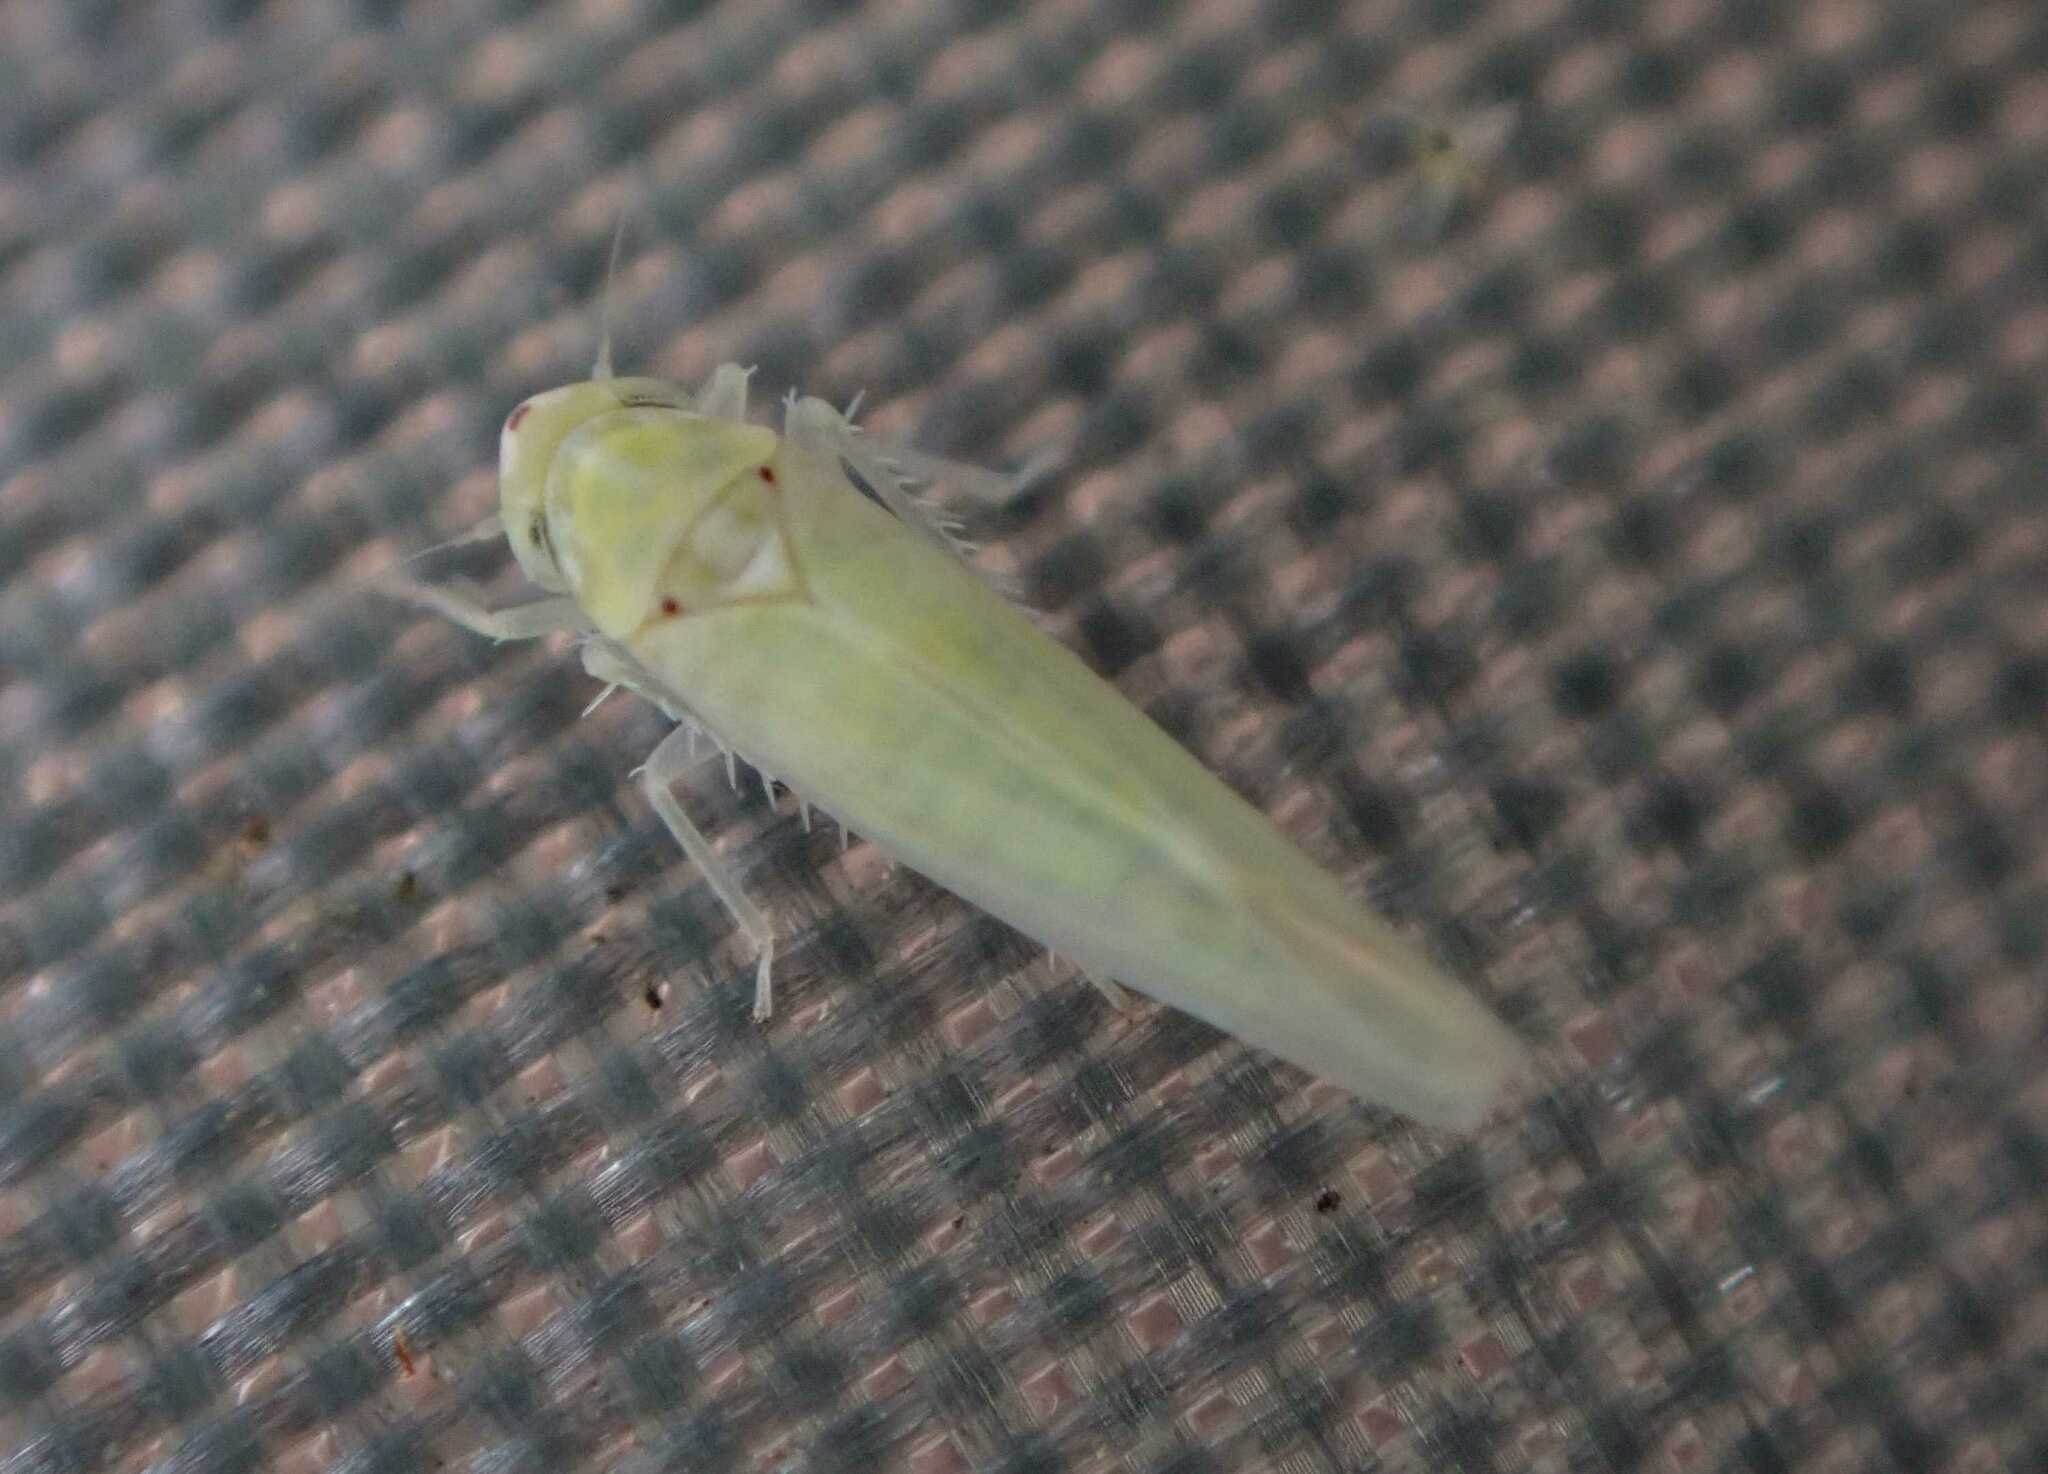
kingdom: Animalia
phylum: Arthropoda
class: Insecta
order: Hemiptera
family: Cicadellidae
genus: Zygina
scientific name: Zygina nivea
